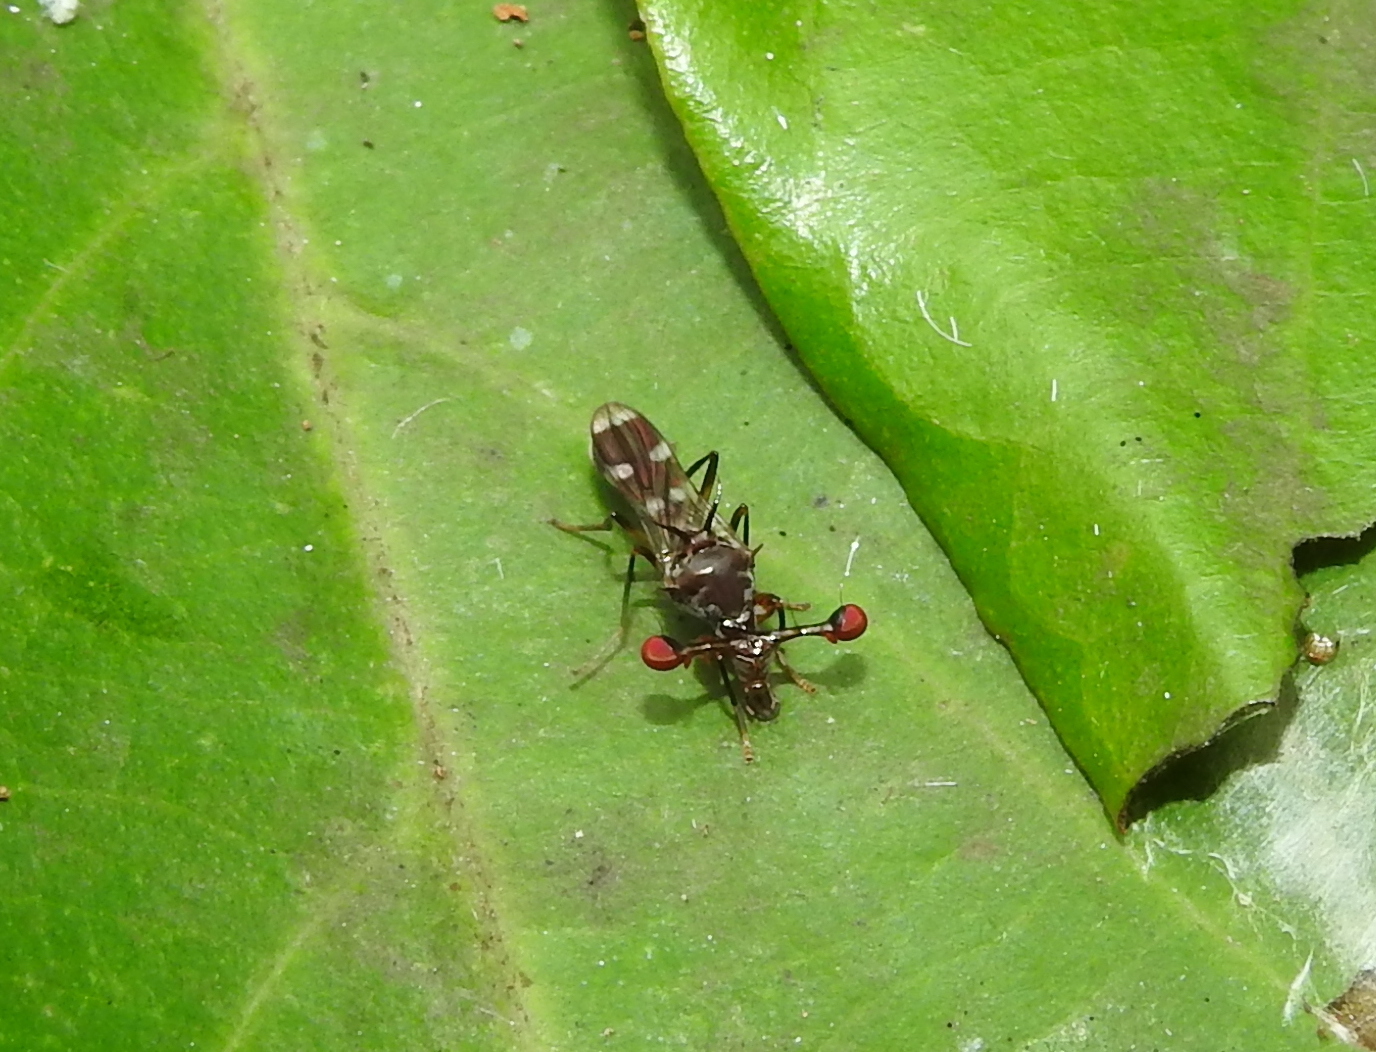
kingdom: Animalia
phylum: Arthropoda
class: Insecta
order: Diptera
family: Diopsidae
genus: Megalabops
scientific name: Megalabops
